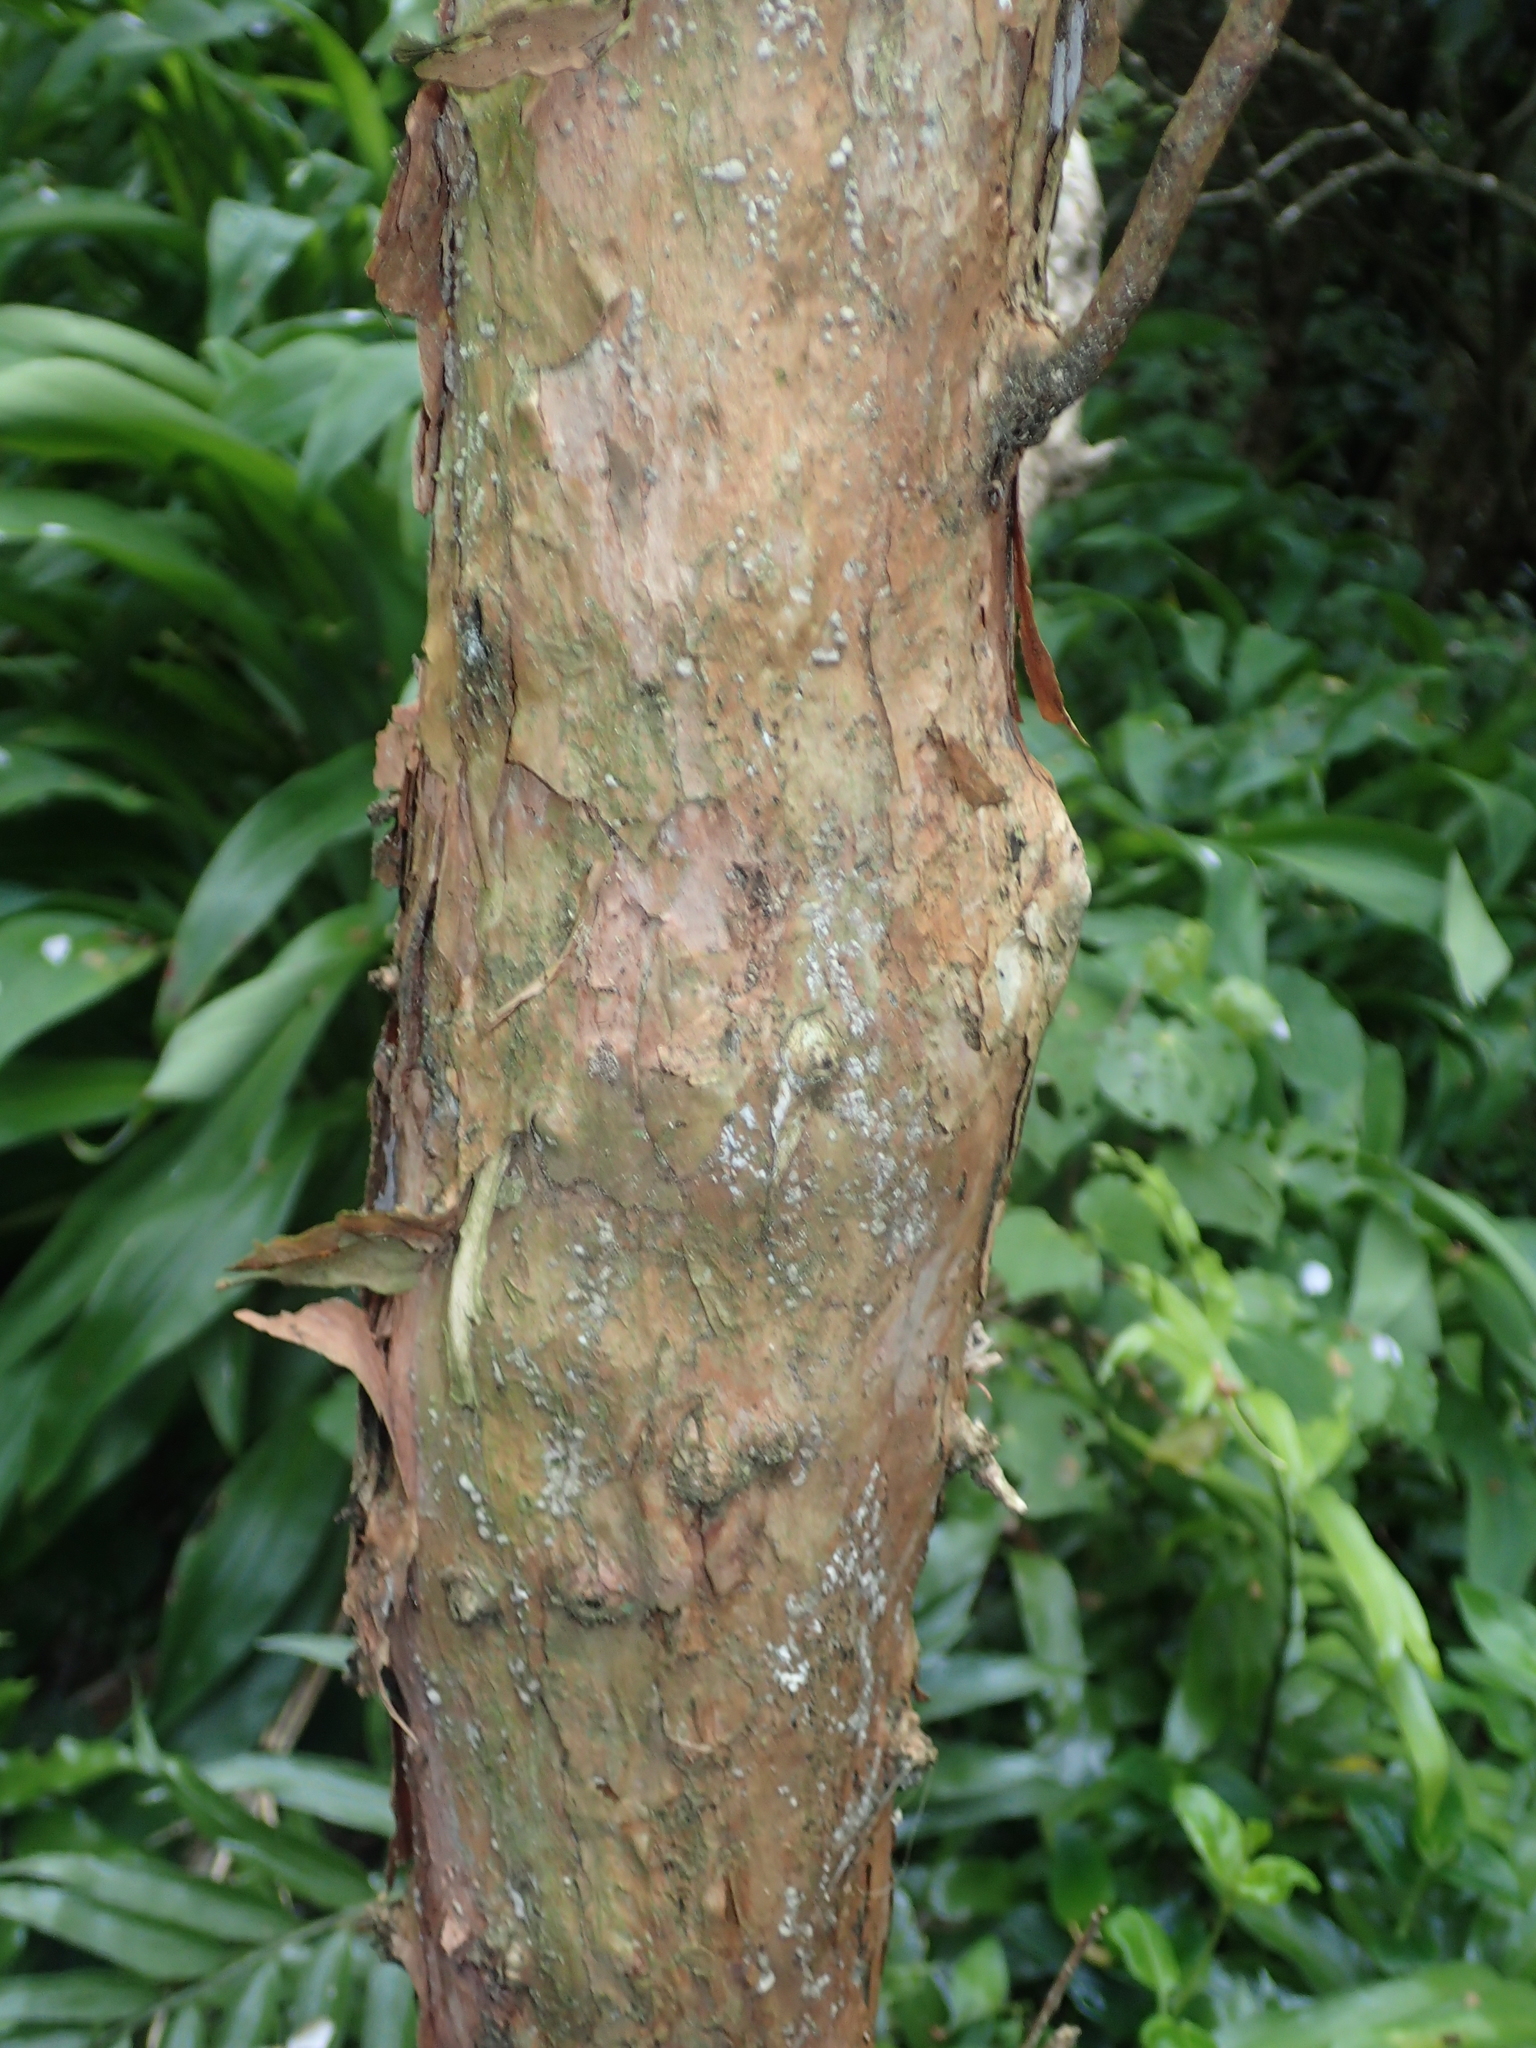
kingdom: Plantae
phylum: Tracheophyta
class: Magnoliopsida
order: Myrtales
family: Onagraceae
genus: Fuchsia
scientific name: Fuchsia excorticata
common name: Tree fuchsia
